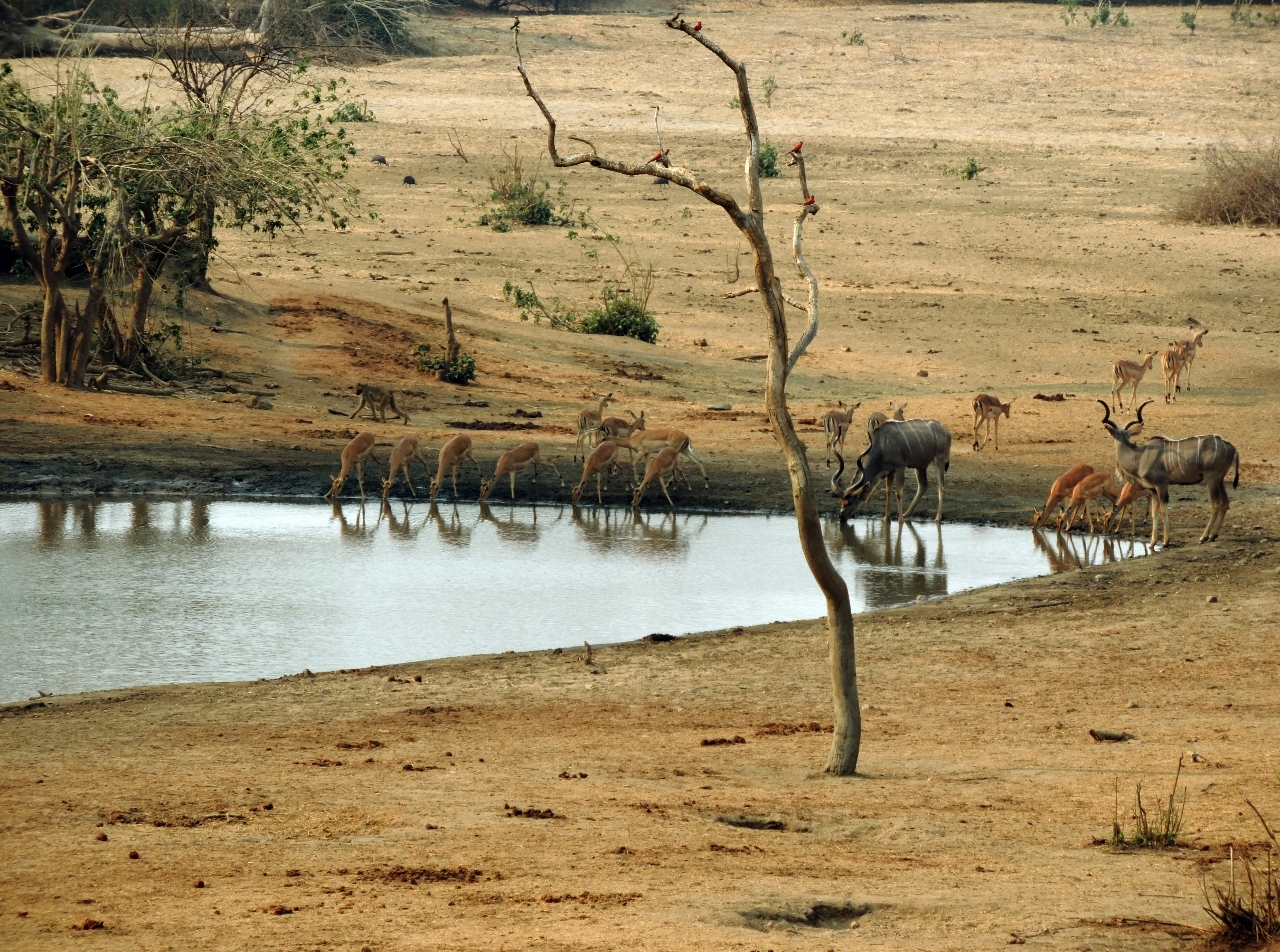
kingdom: Animalia
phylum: Chordata
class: Mammalia
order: Artiodactyla
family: Bovidae
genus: Aepyceros
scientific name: Aepyceros melampus
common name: Impala
